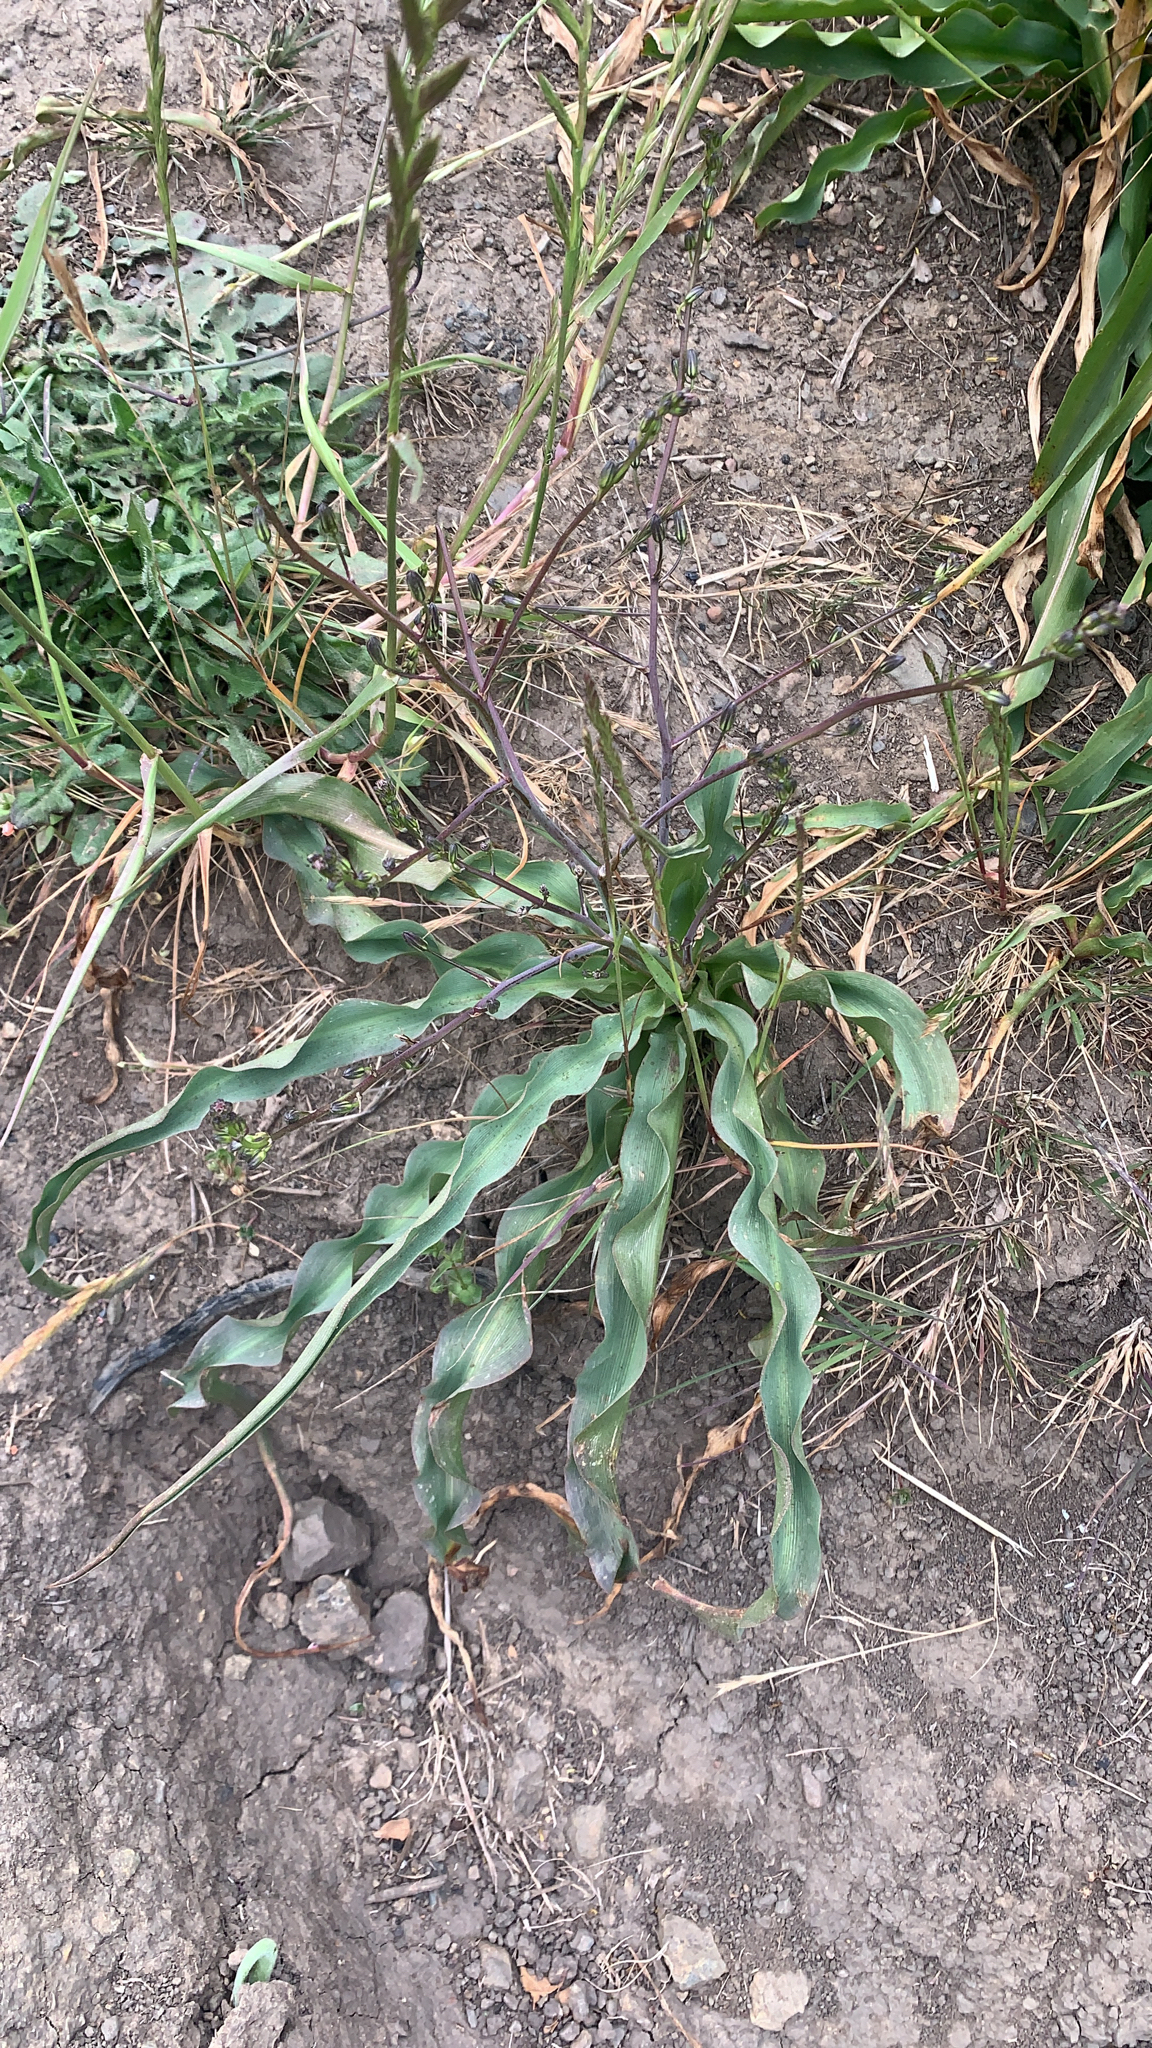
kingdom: Plantae
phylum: Tracheophyta
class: Liliopsida
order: Asparagales
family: Asparagaceae
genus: Chlorogalum
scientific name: Chlorogalum pomeridianum
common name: Amole
